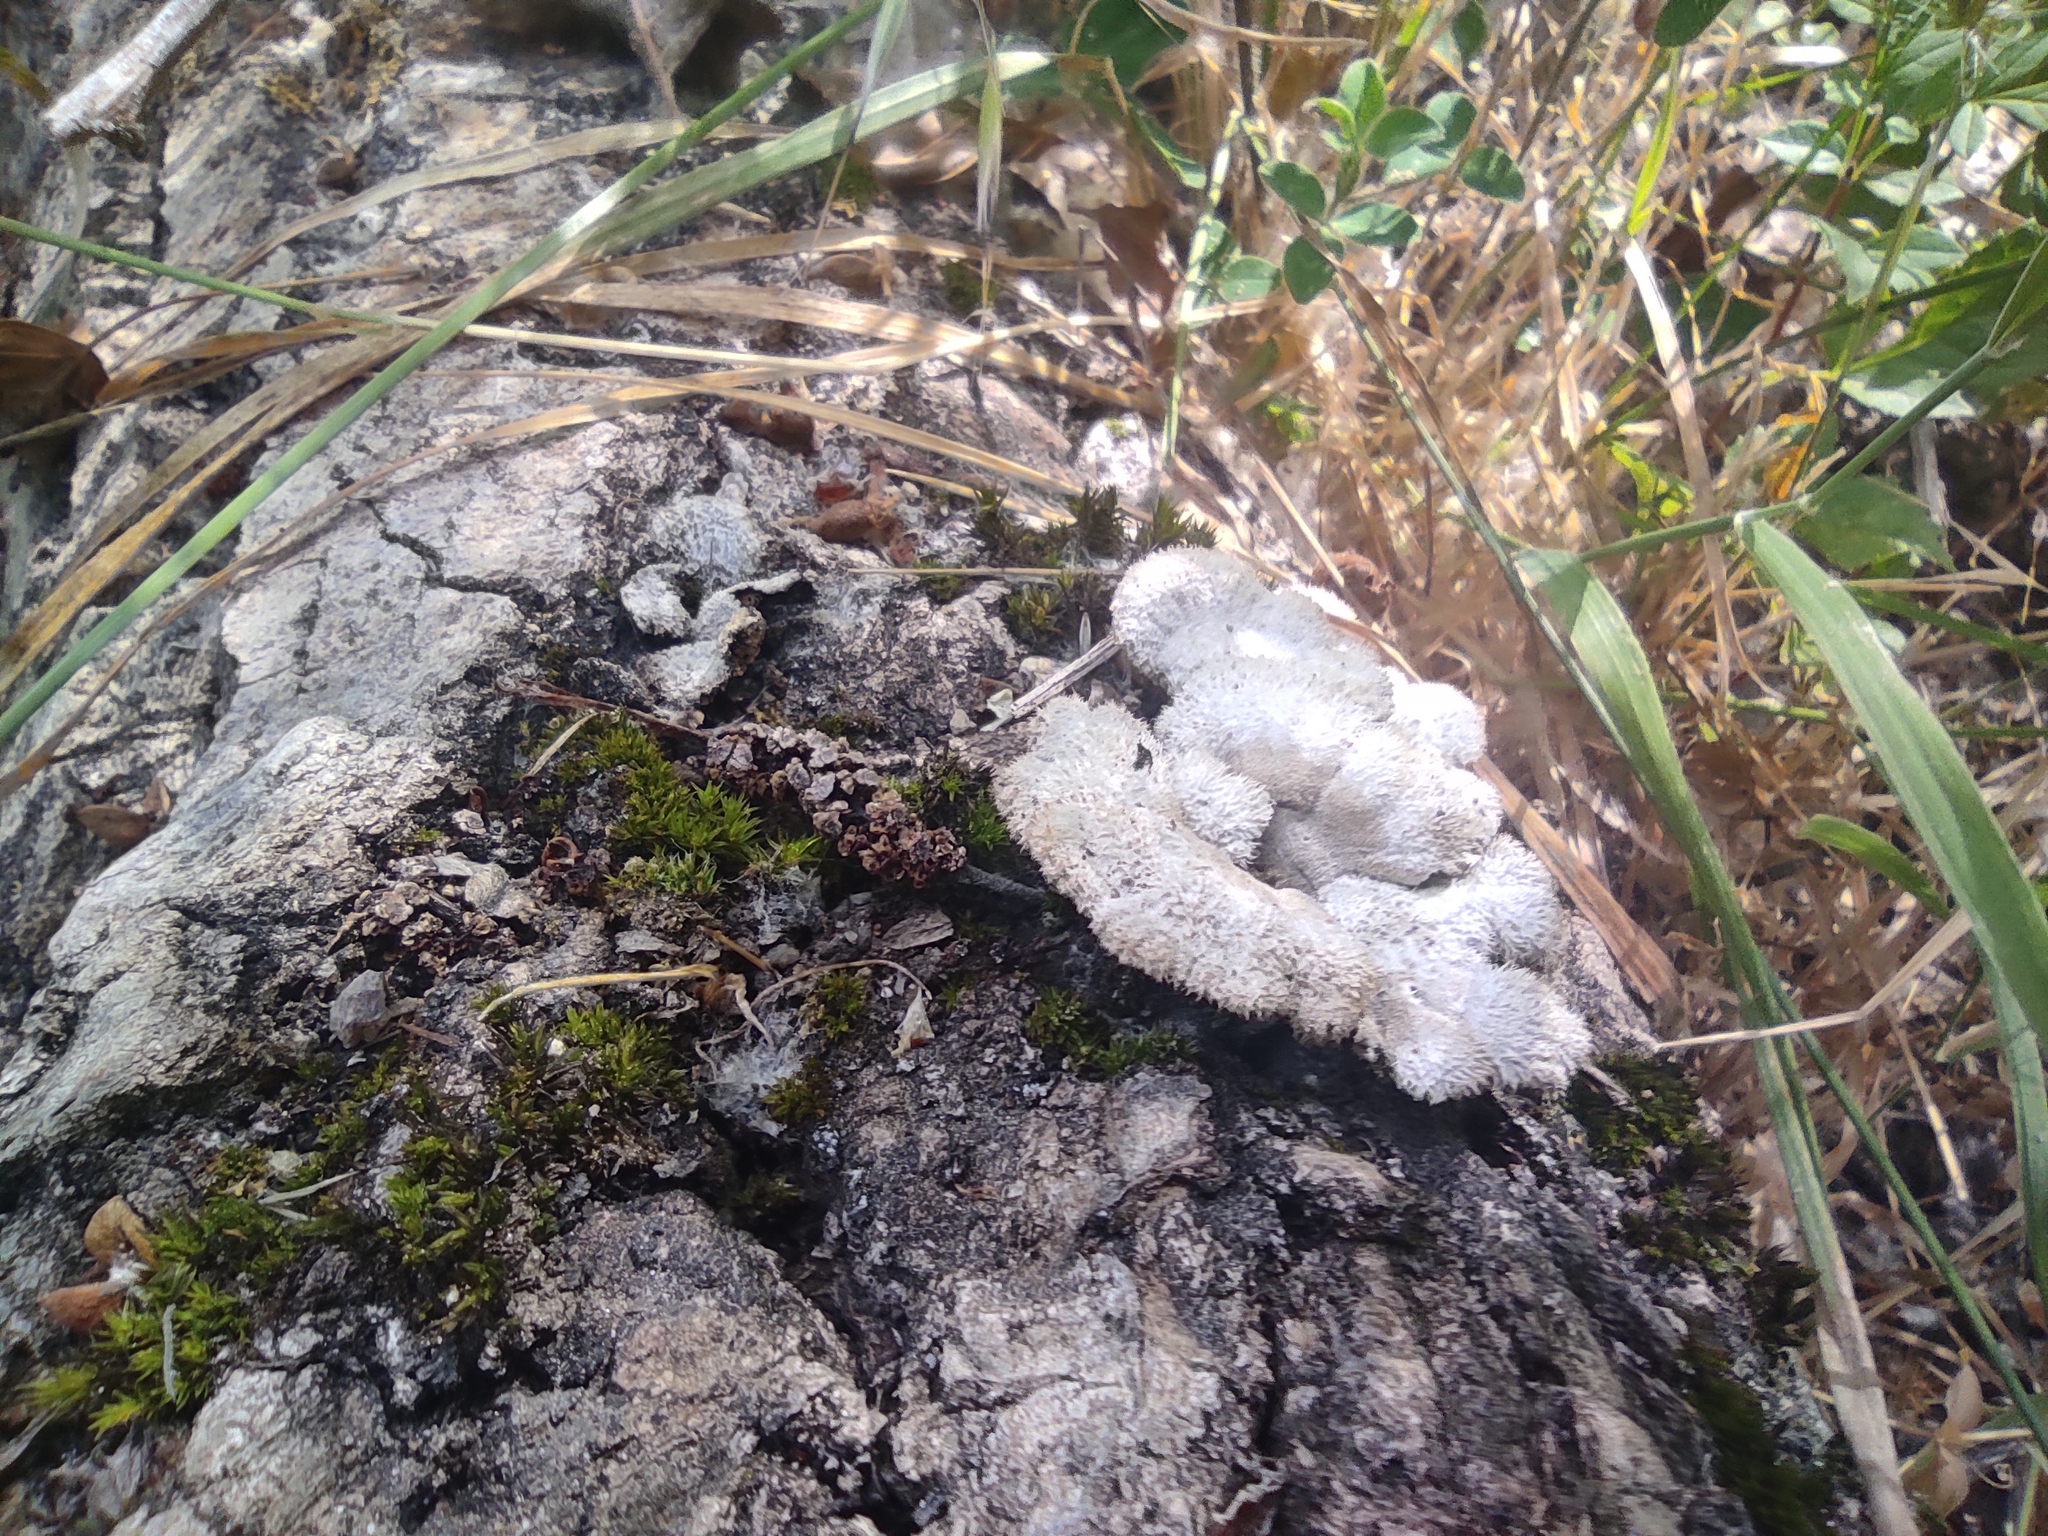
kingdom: Fungi
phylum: Basidiomycota
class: Agaricomycetes
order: Agaricales
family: Schizophyllaceae
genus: Schizophyllum
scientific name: Schizophyllum commune
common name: Common porecrust
